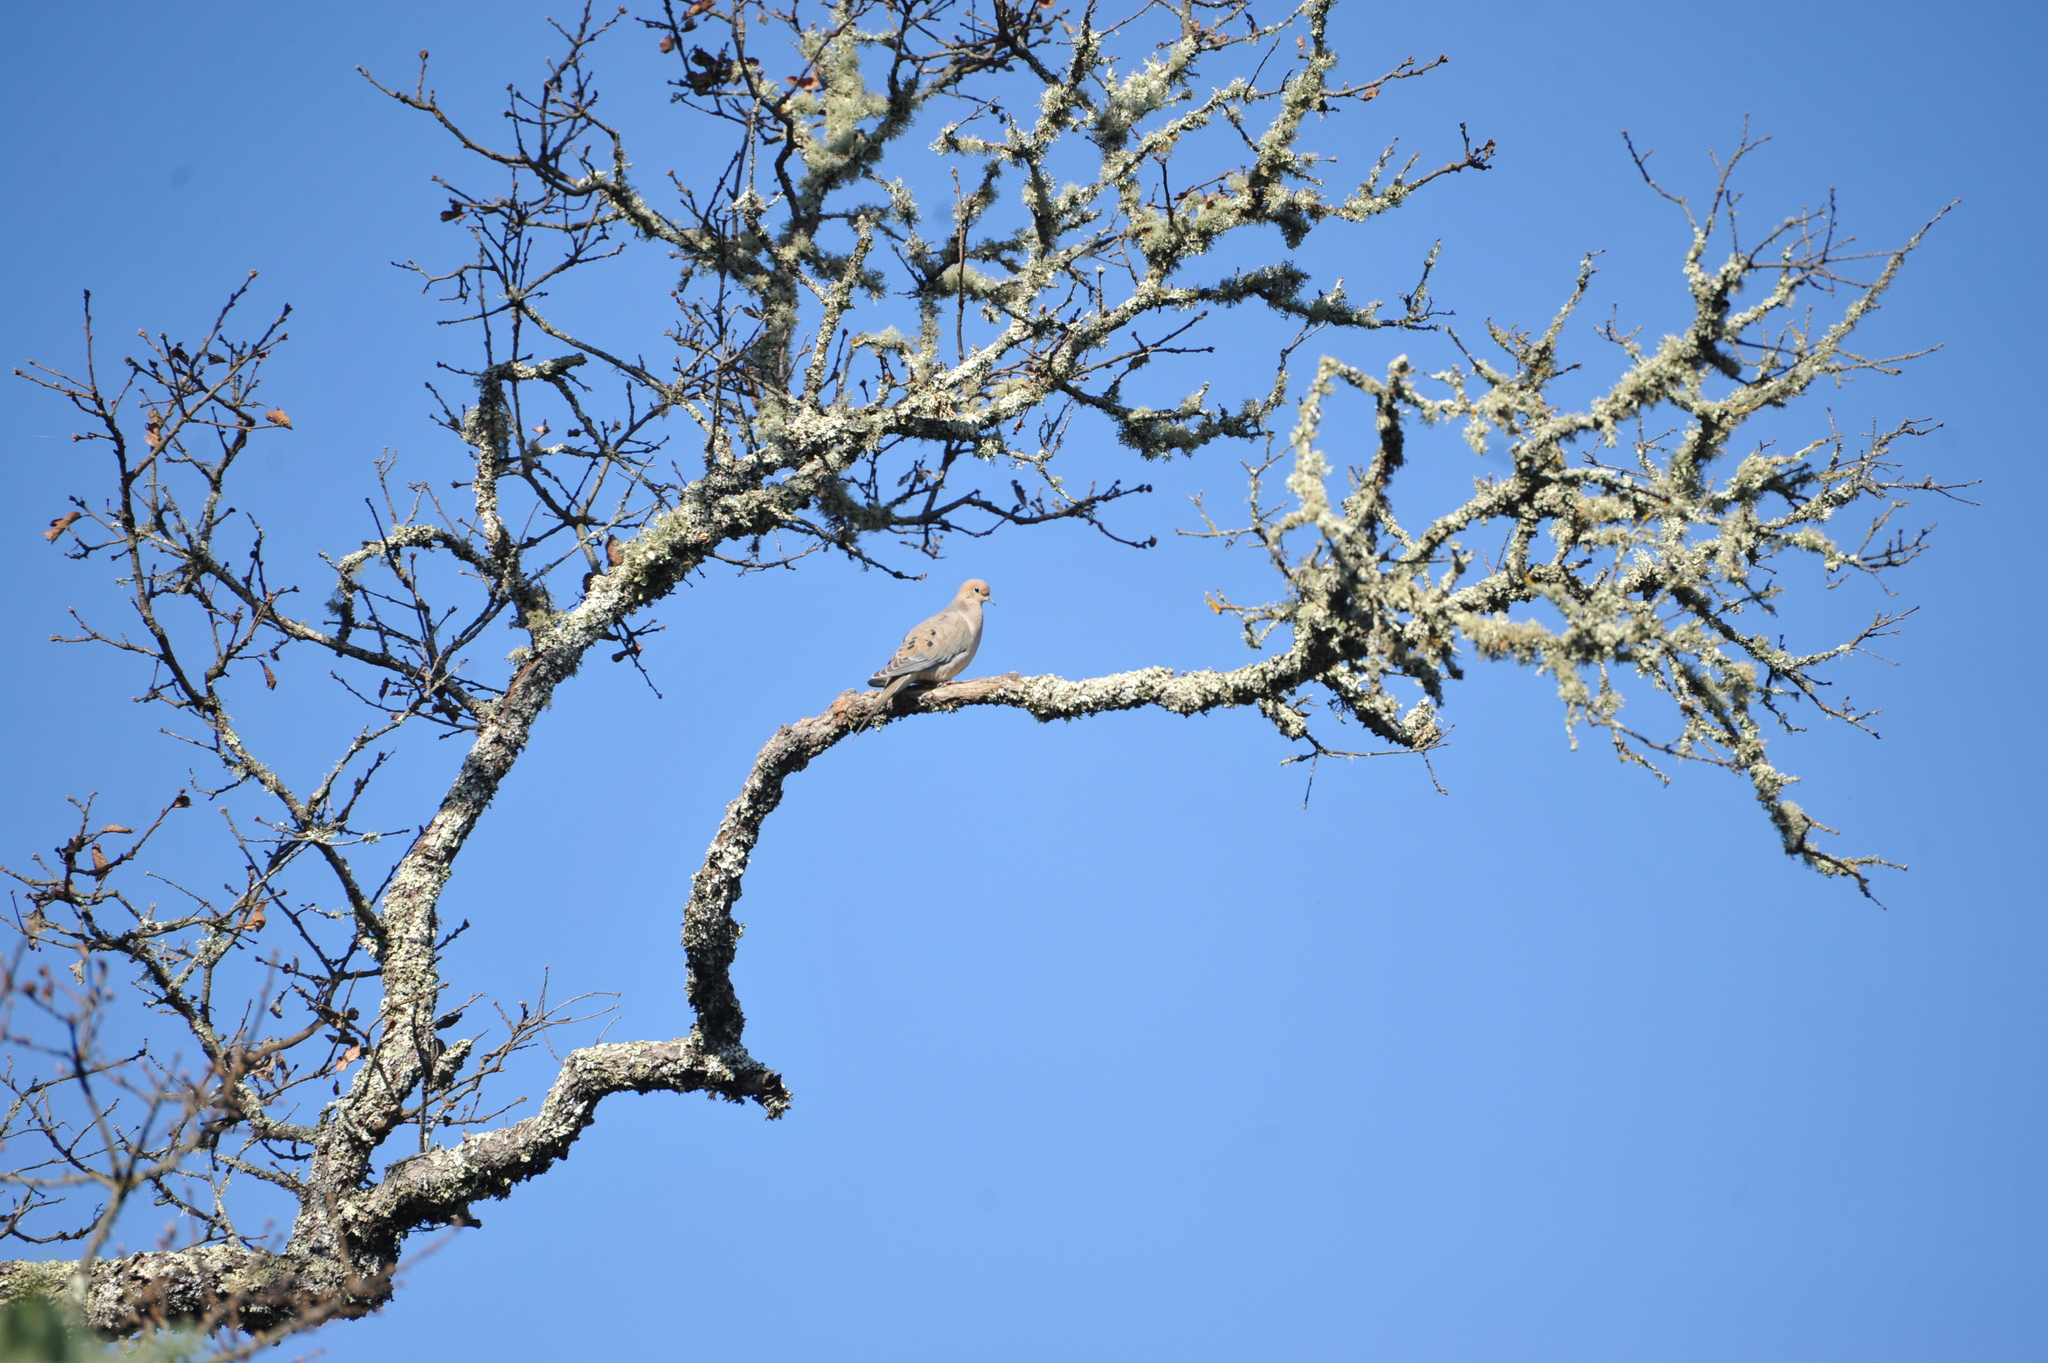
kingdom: Animalia
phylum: Chordata
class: Aves
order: Columbiformes
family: Columbidae
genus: Zenaida
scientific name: Zenaida macroura
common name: Mourning dove
